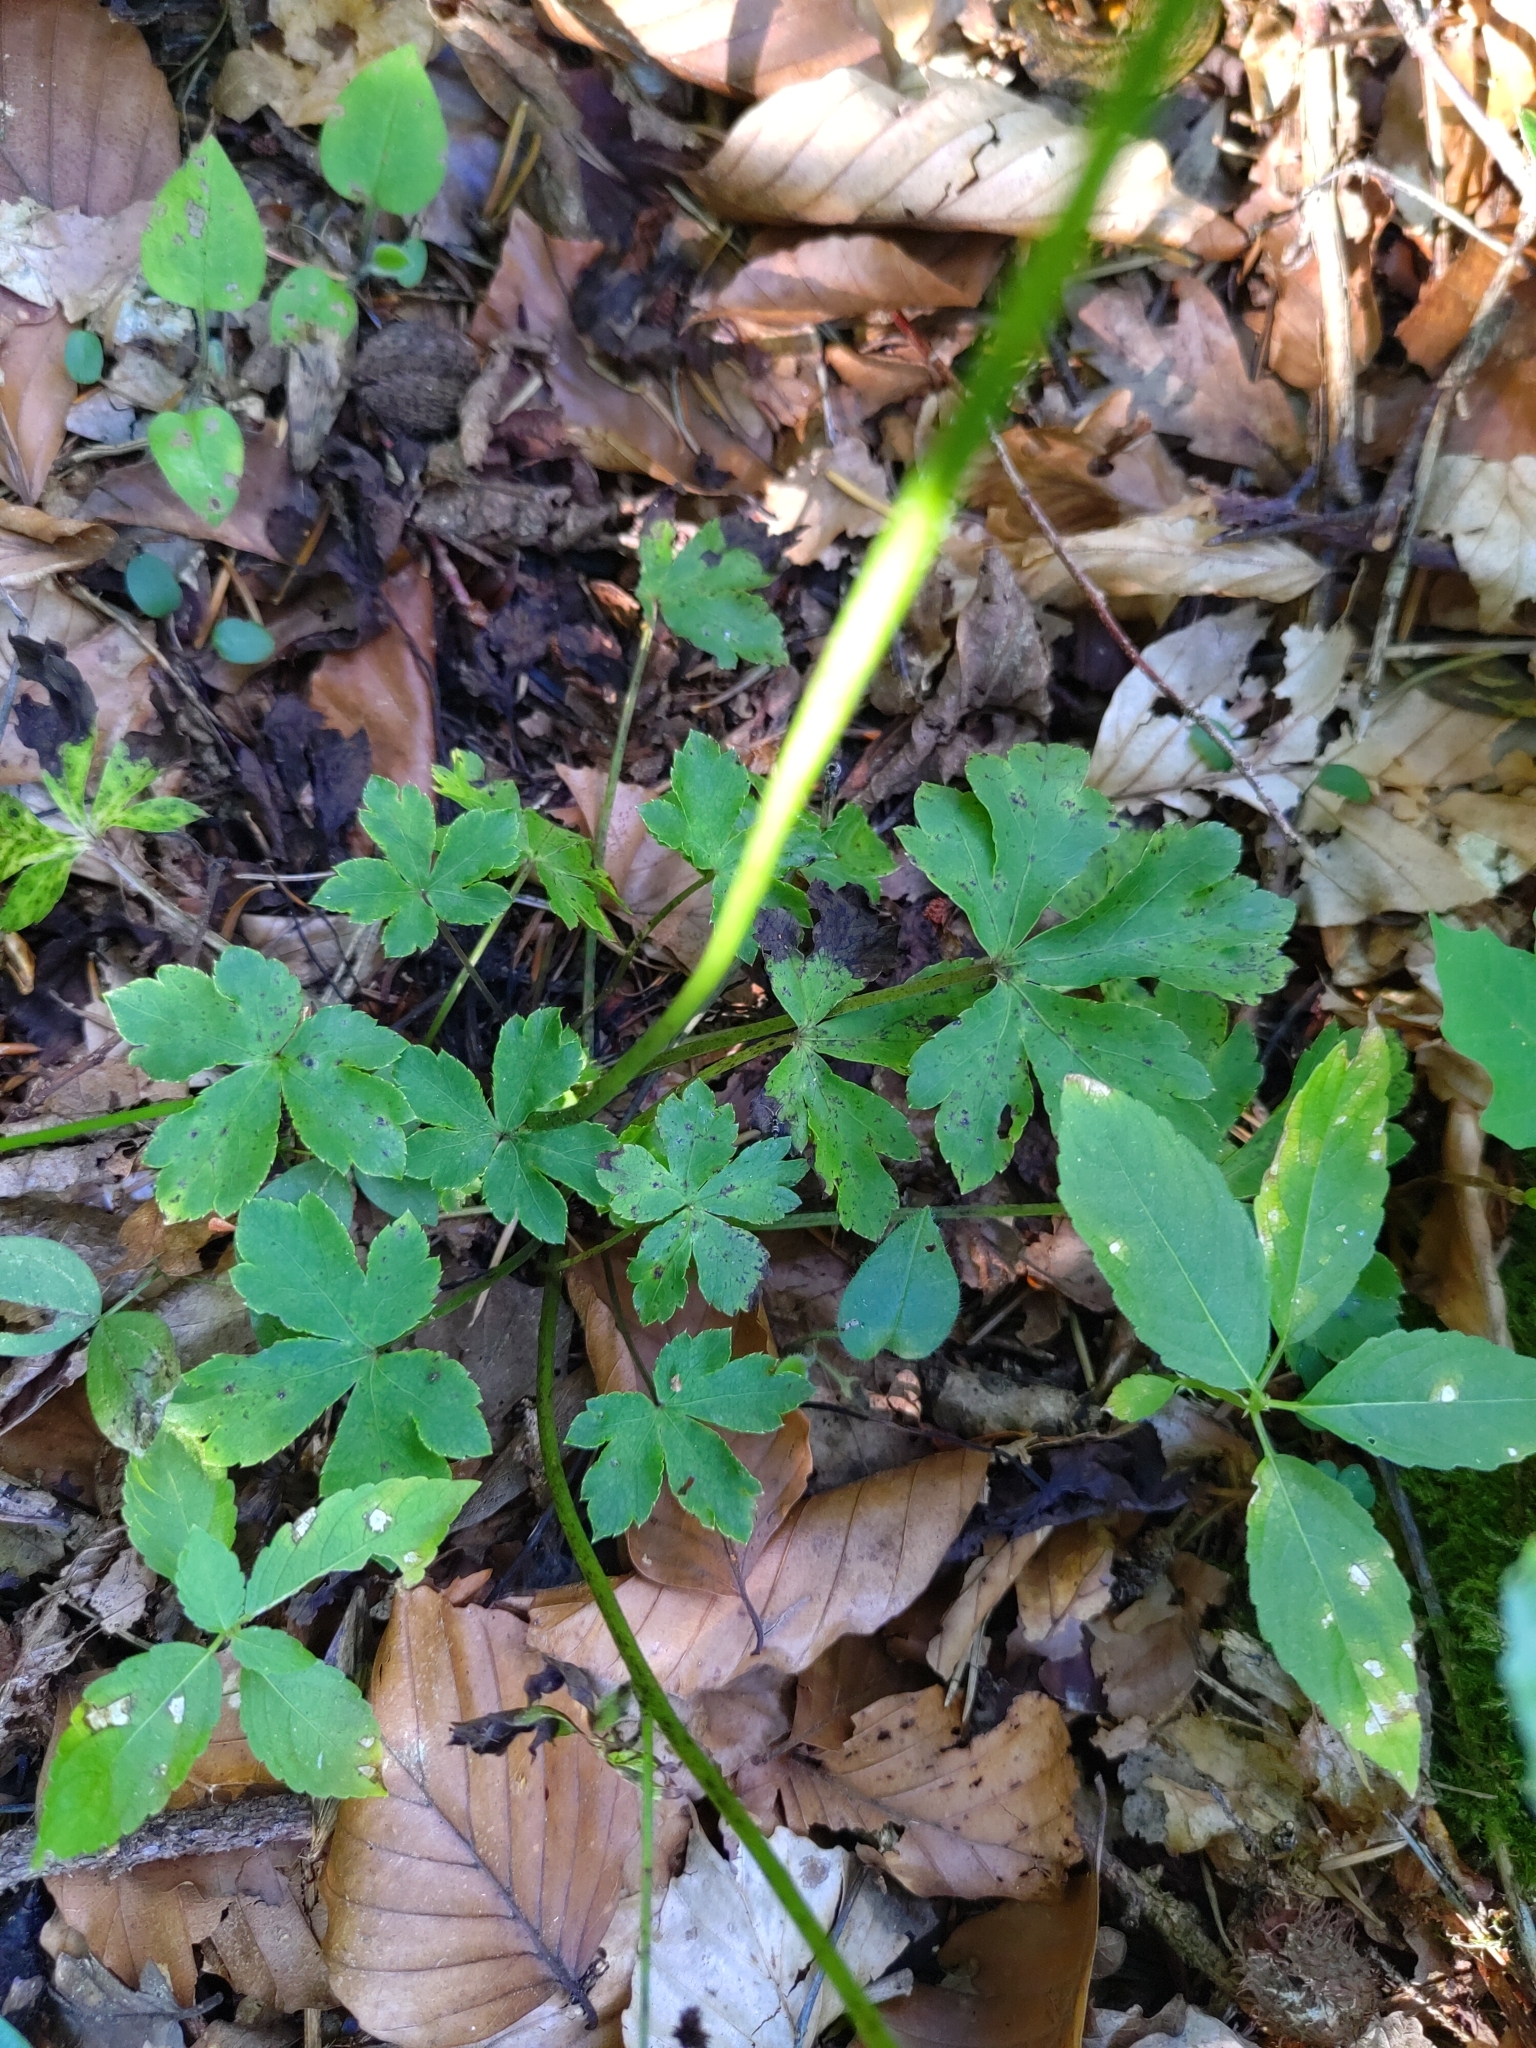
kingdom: Plantae
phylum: Tracheophyta
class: Magnoliopsida
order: Apiales
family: Apiaceae
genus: Sanicula
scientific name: Sanicula europaea
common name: Sanicle
